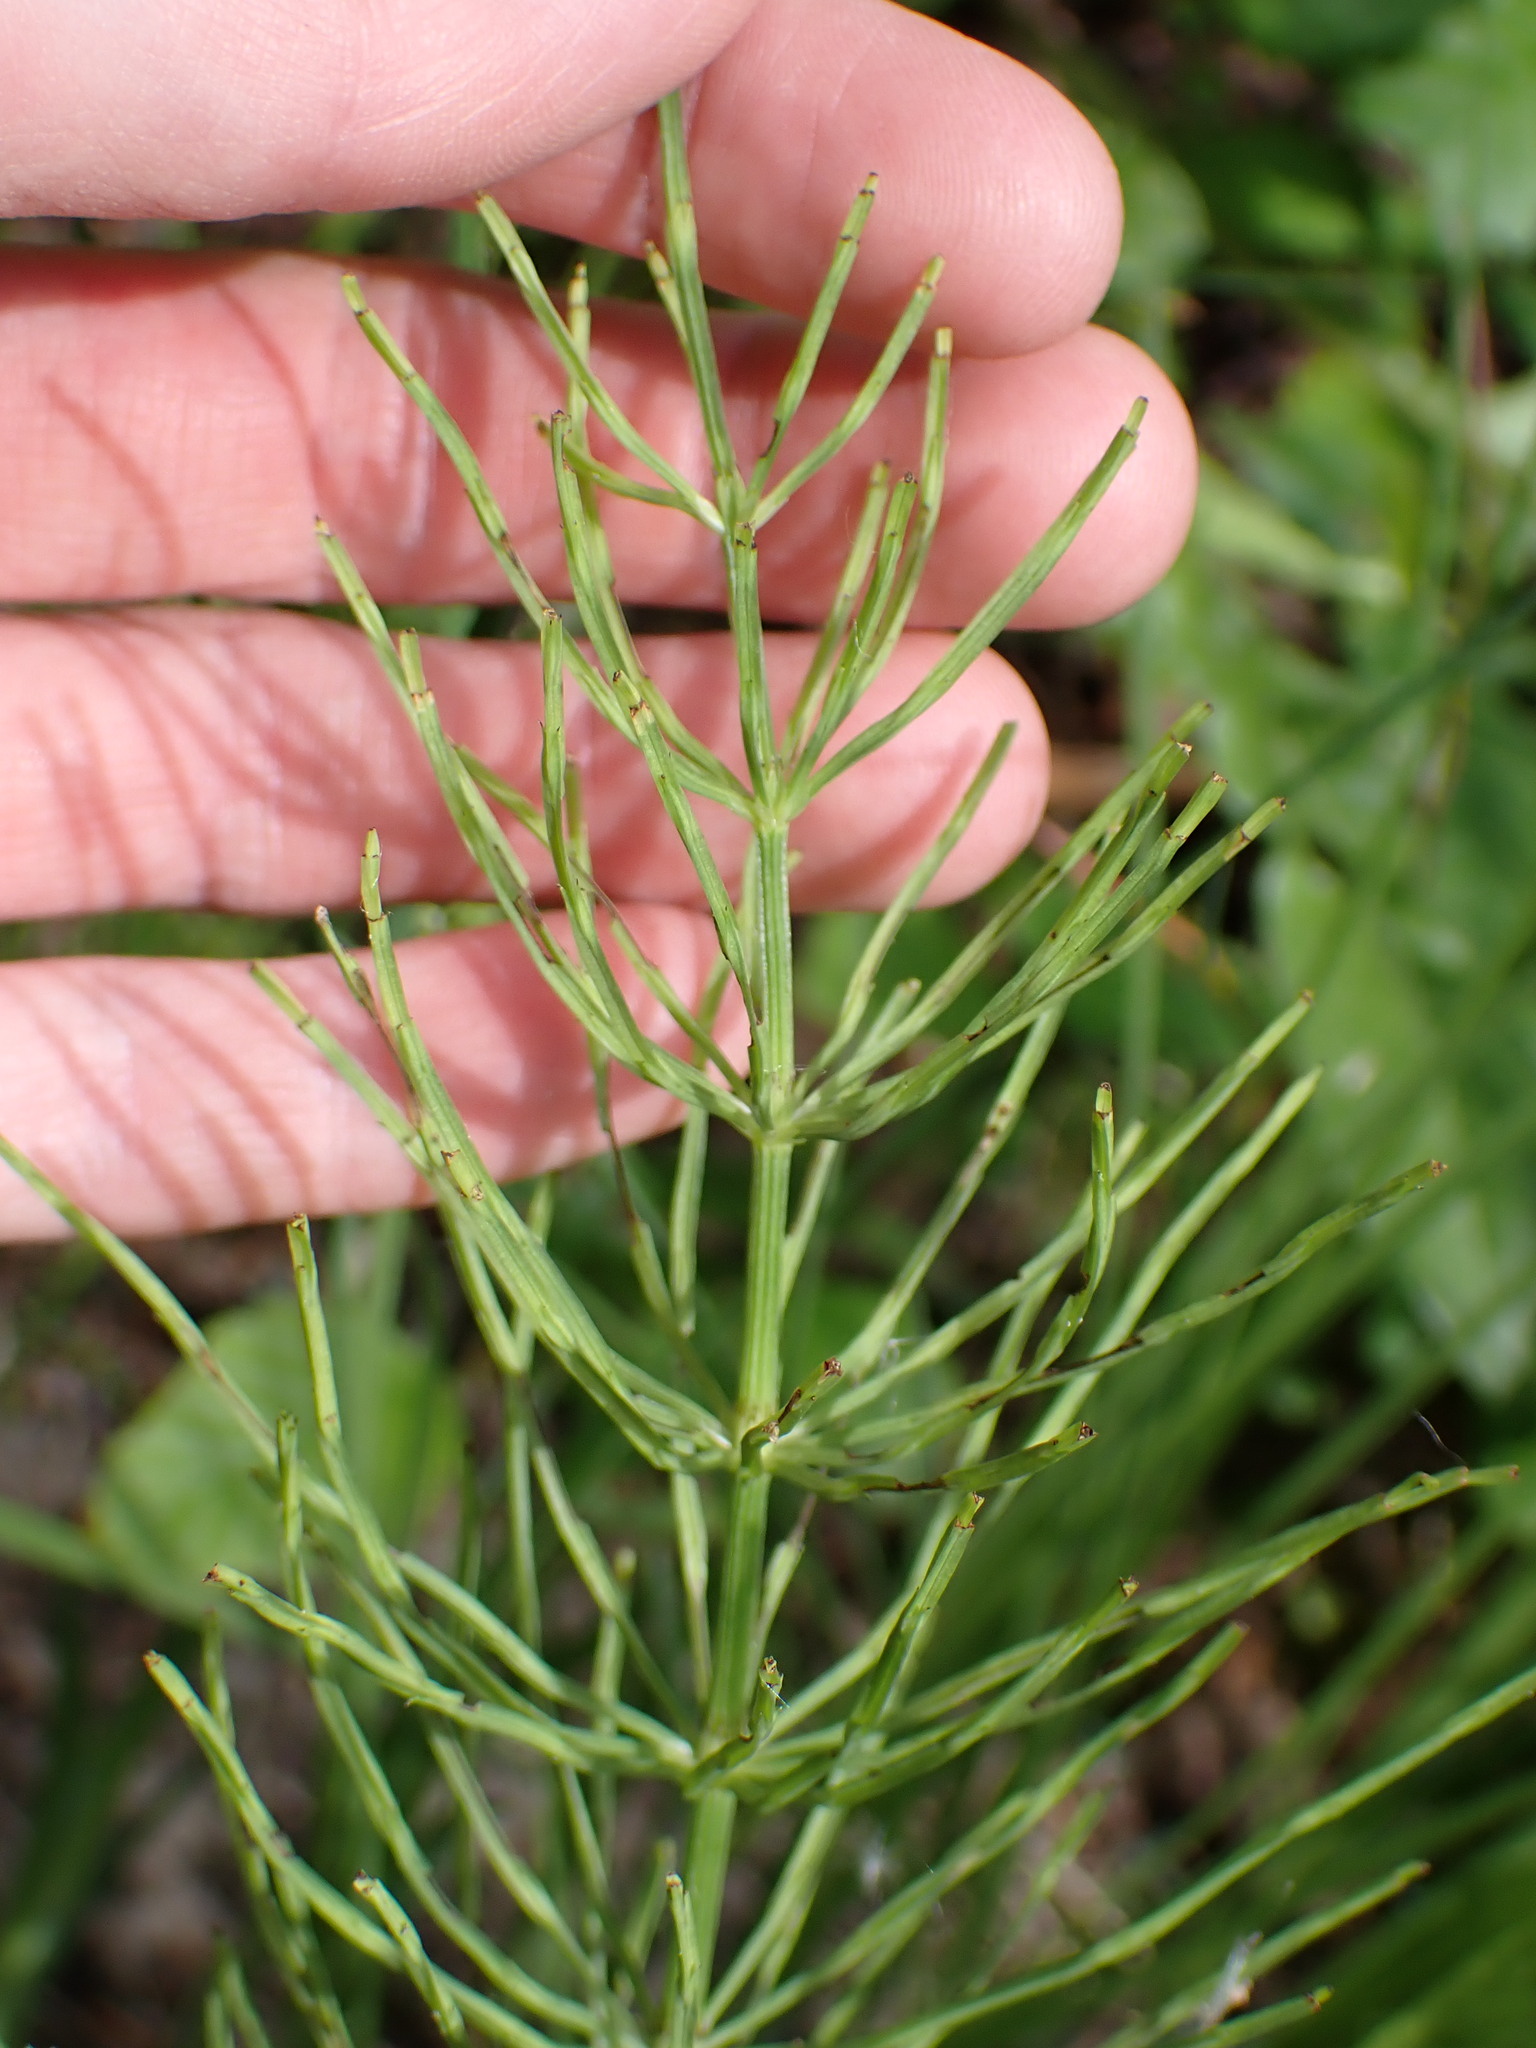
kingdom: Plantae
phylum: Tracheophyta
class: Polypodiopsida
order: Equisetales
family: Equisetaceae
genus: Equisetum
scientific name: Equisetum arvense
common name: Field horsetail
